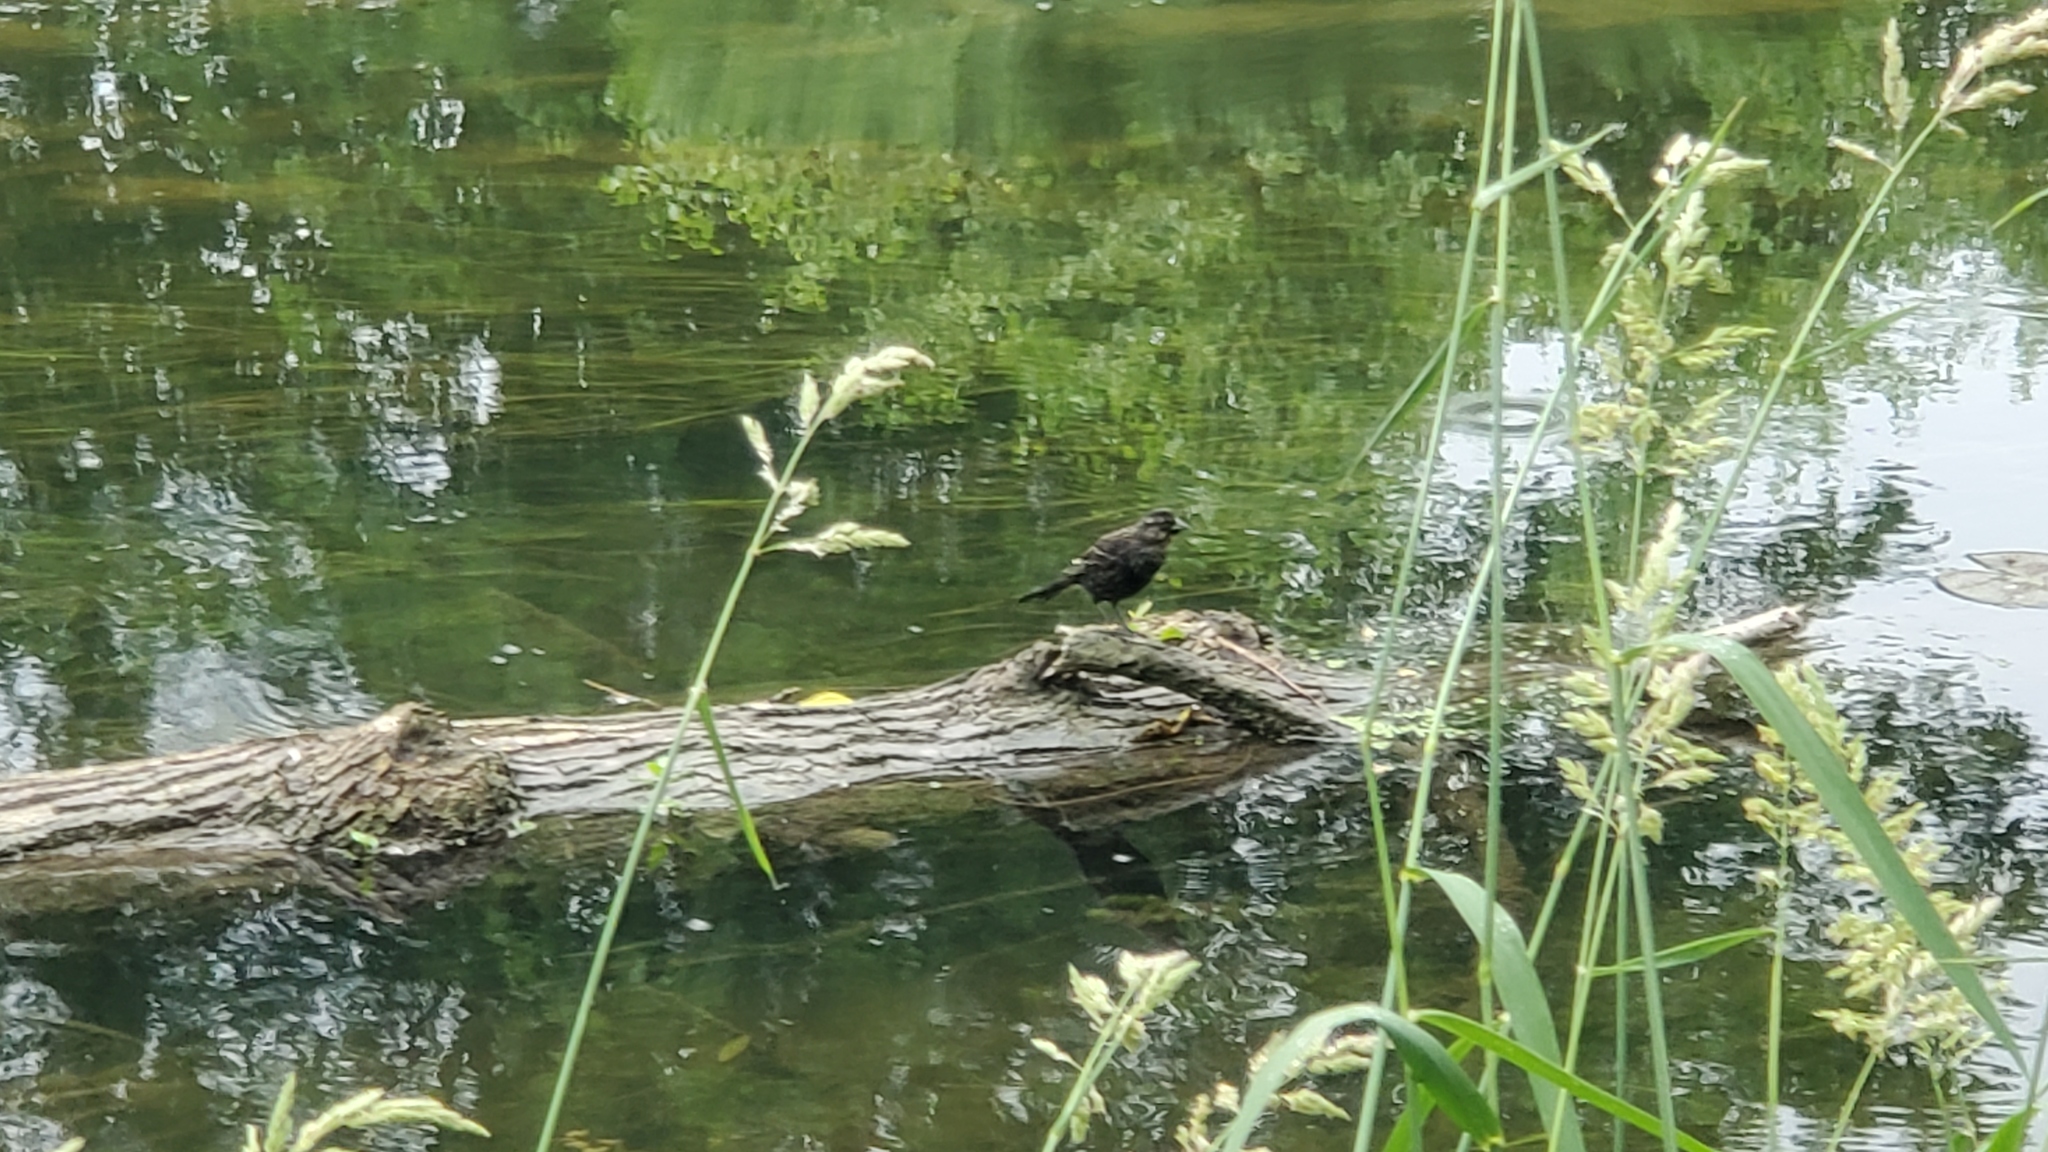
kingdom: Animalia
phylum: Chordata
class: Aves
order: Passeriformes
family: Icteridae
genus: Agelaius
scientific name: Agelaius phoeniceus
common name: Red-winged blackbird
